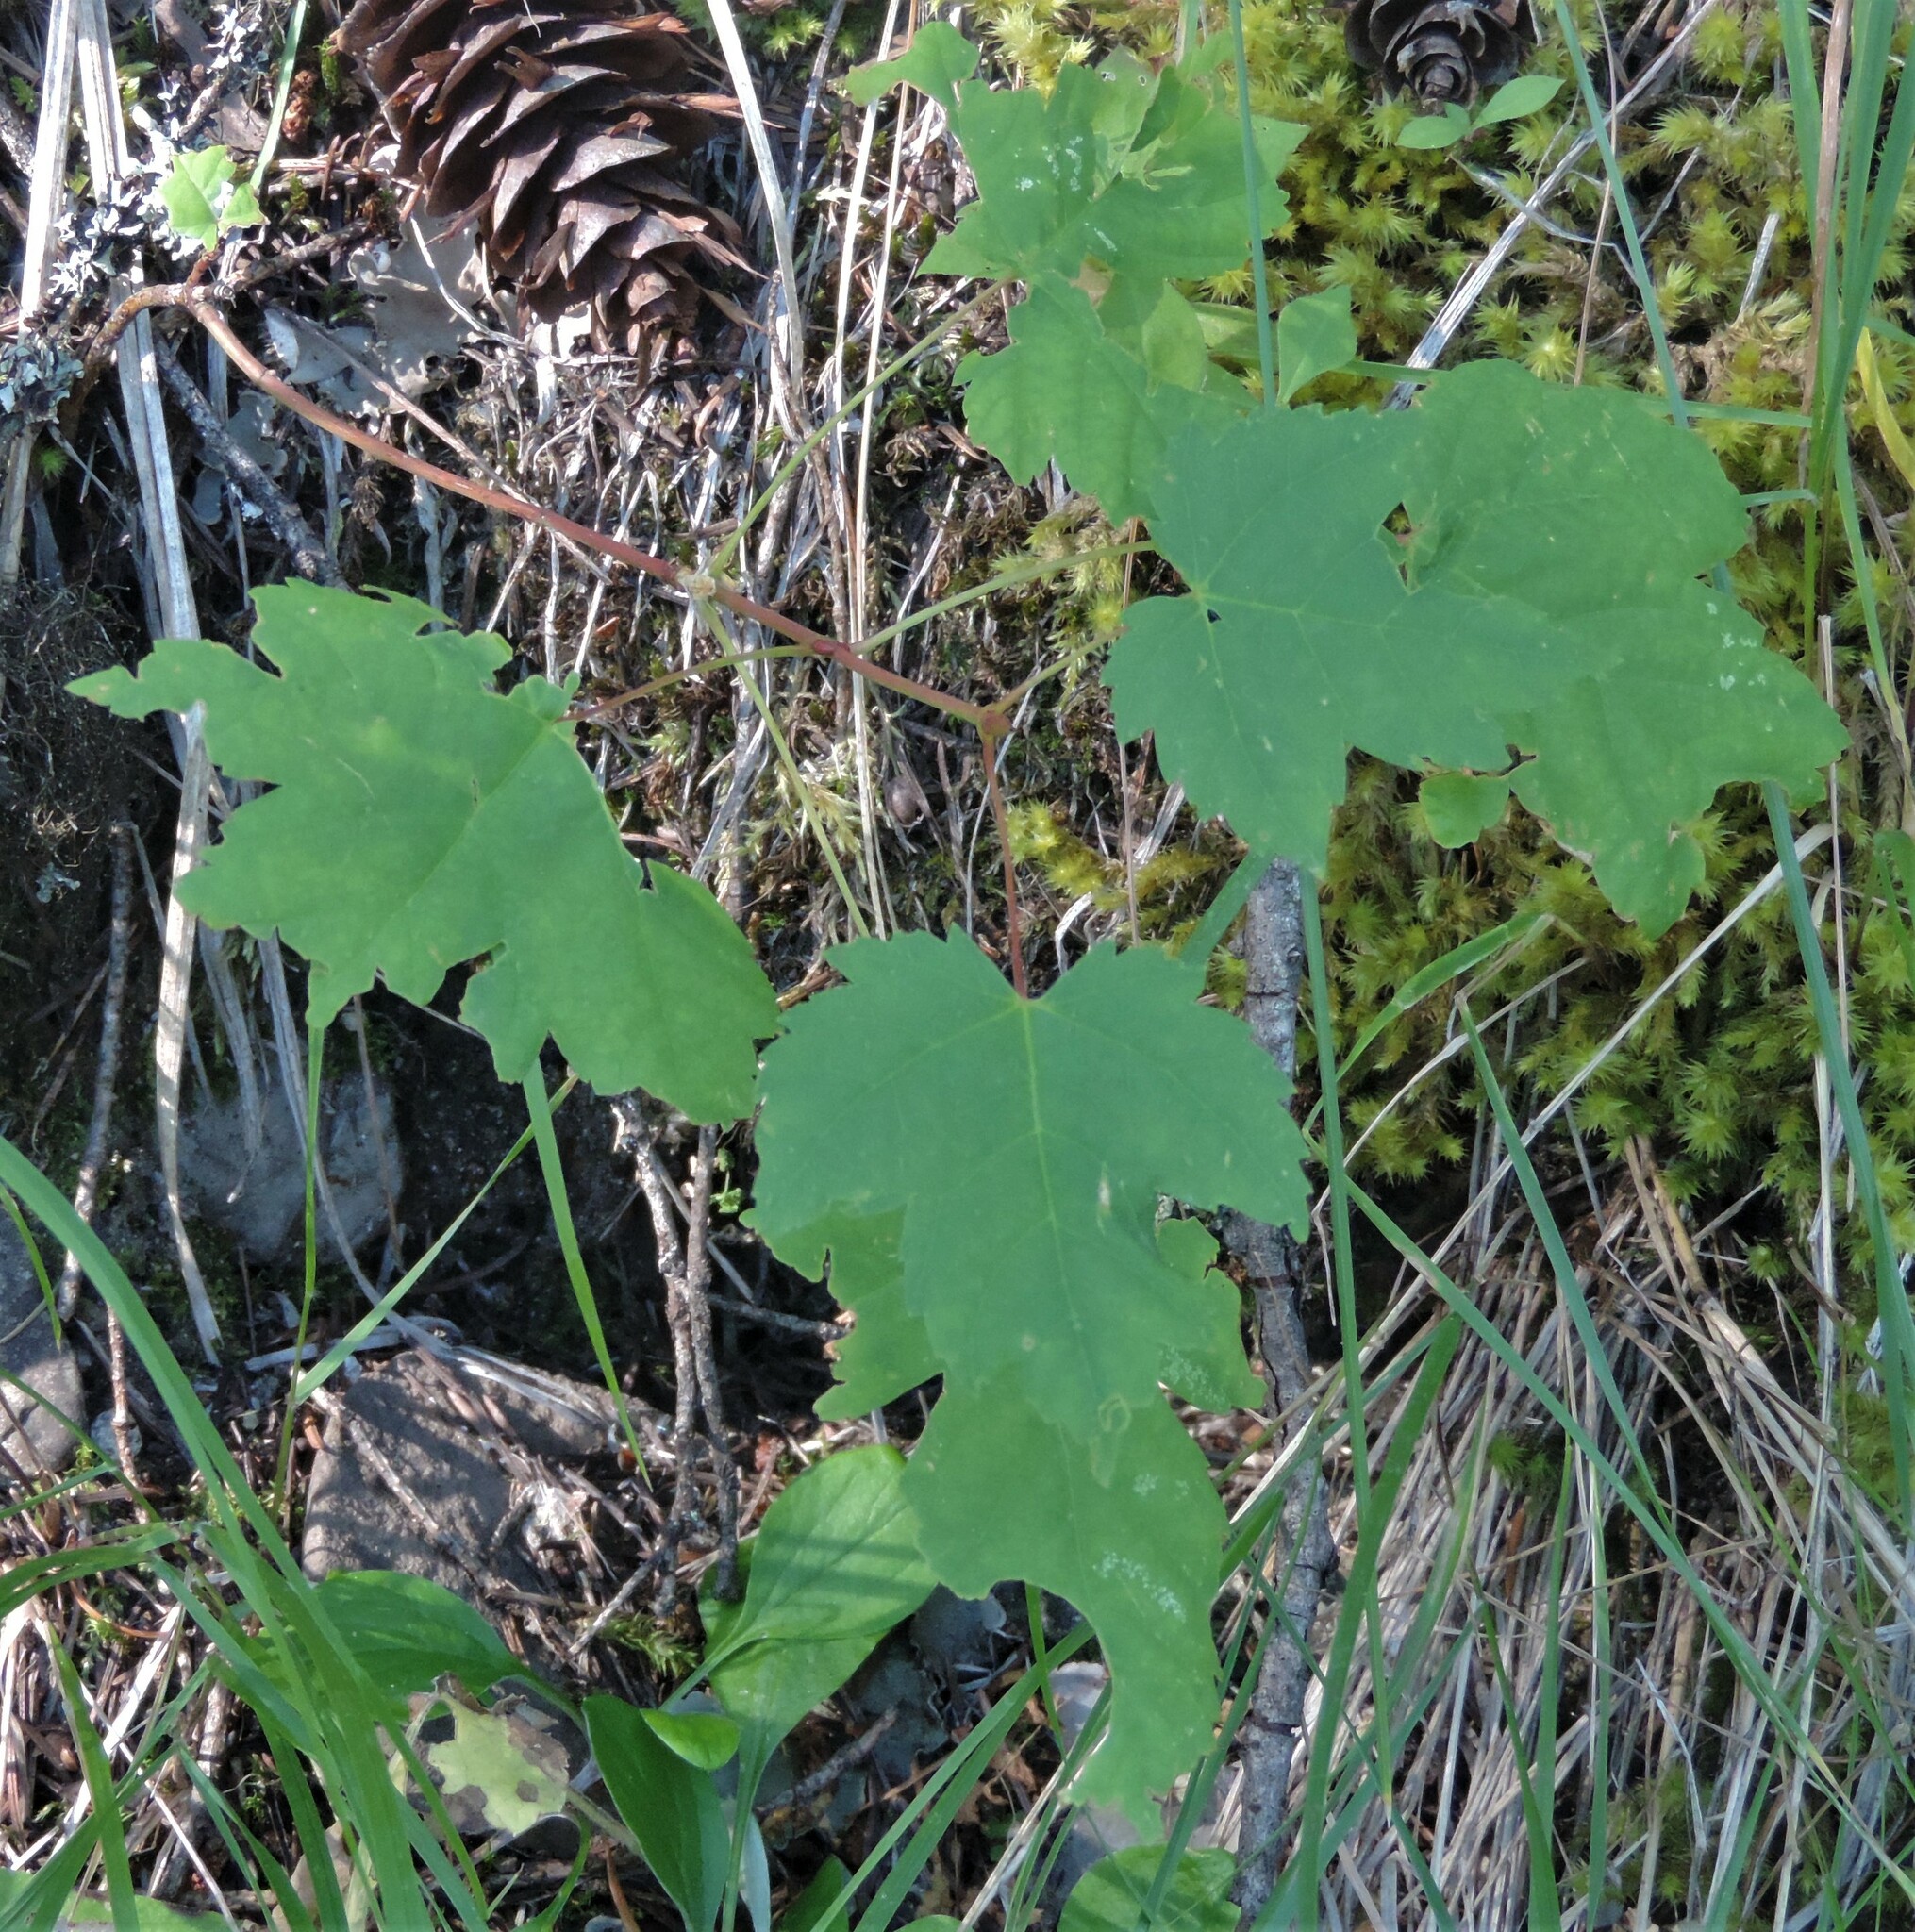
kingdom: Plantae
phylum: Tracheophyta
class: Magnoliopsida
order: Sapindales
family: Sapindaceae
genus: Acer
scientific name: Acer glabrum
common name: Rocky mountain maple
